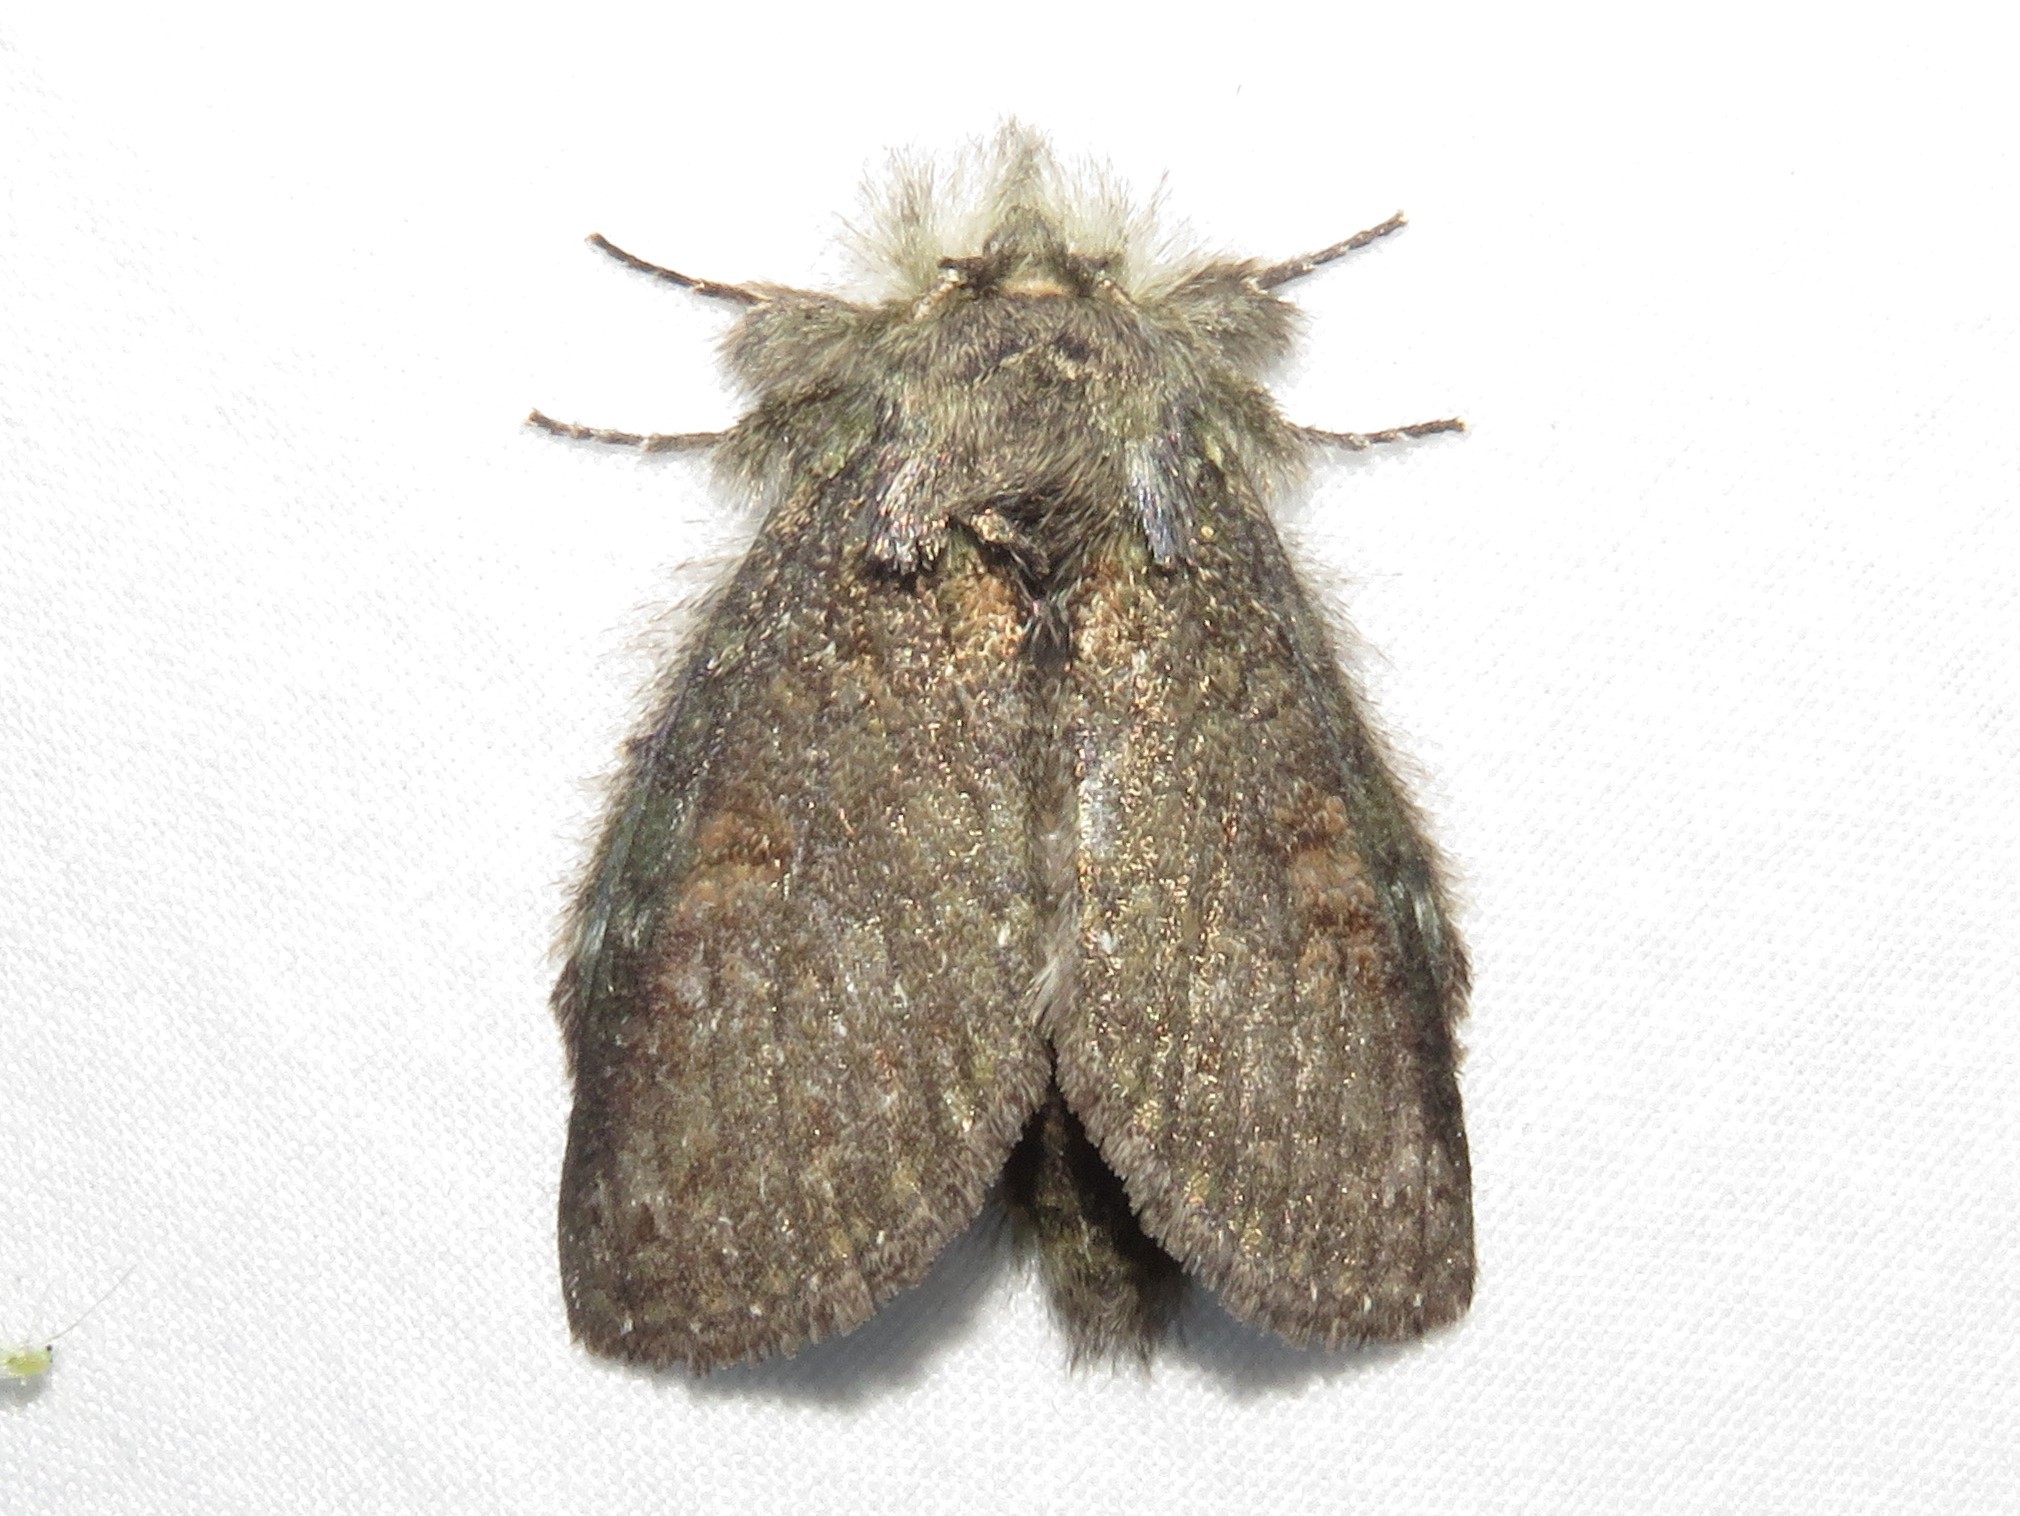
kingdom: Animalia
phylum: Arthropoda
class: Insecta
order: Lepidoptera
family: Notodontidae
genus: Disphragis
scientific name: Disphragis Cecrita guttivitta
